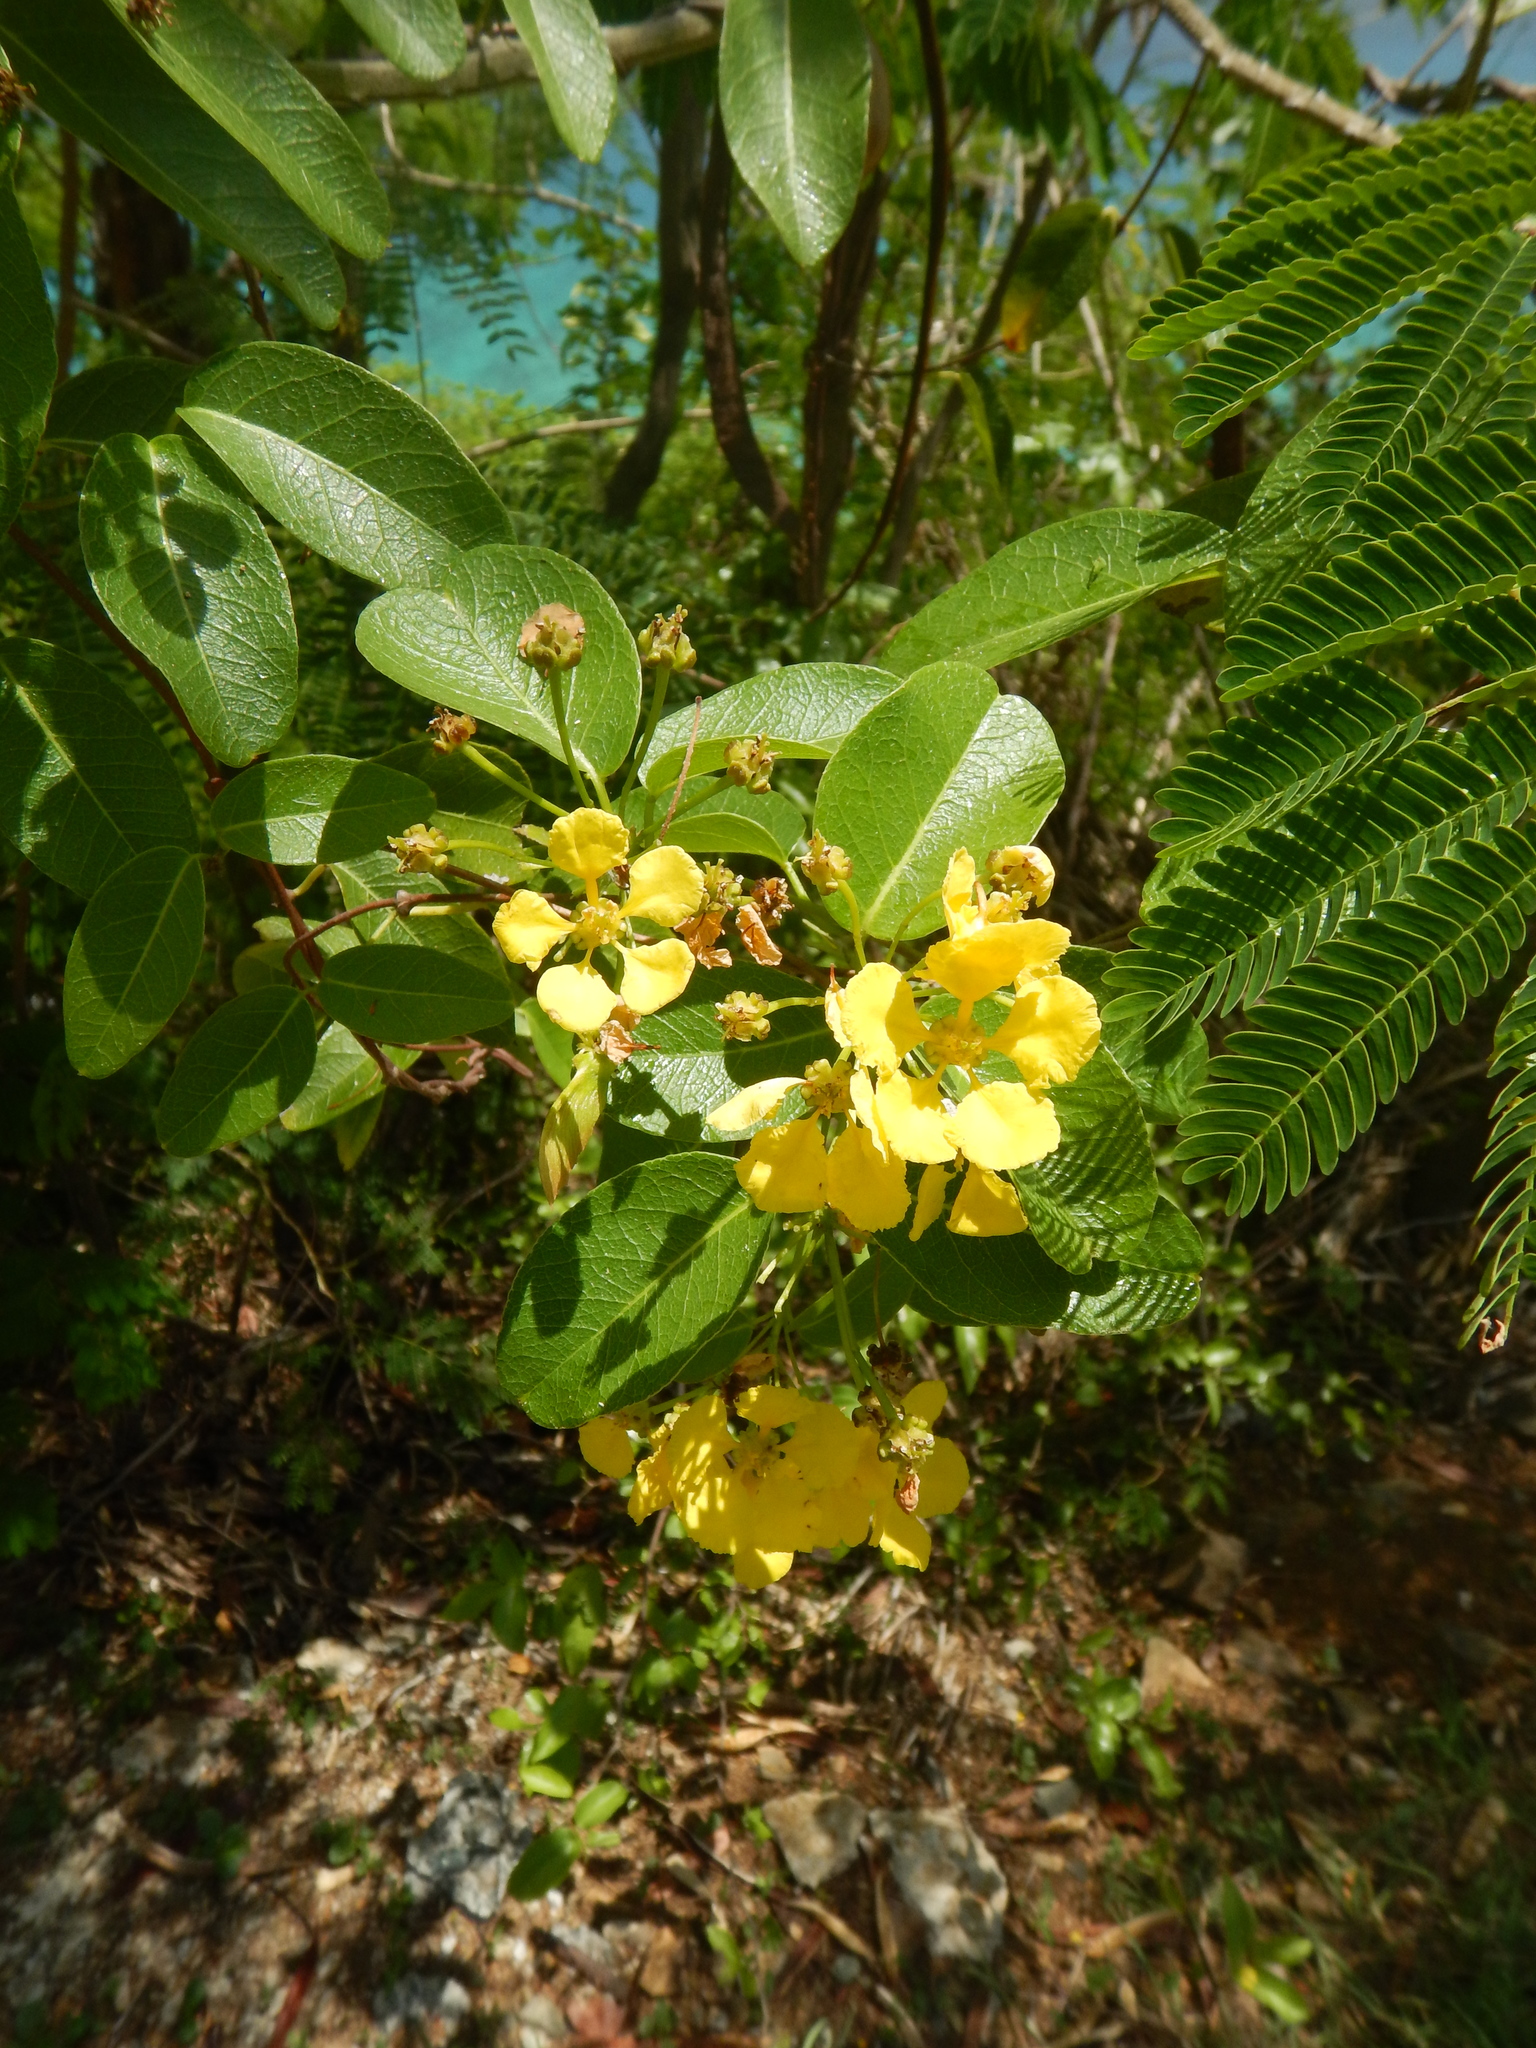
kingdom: Plantae
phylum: Tracheophyta
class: Magnoliopsida
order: Malpighiales
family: Malpighiaceae
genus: Stigmaphyllon
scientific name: Stigmaphyllon emarginatum
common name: Monarch amazonvine
